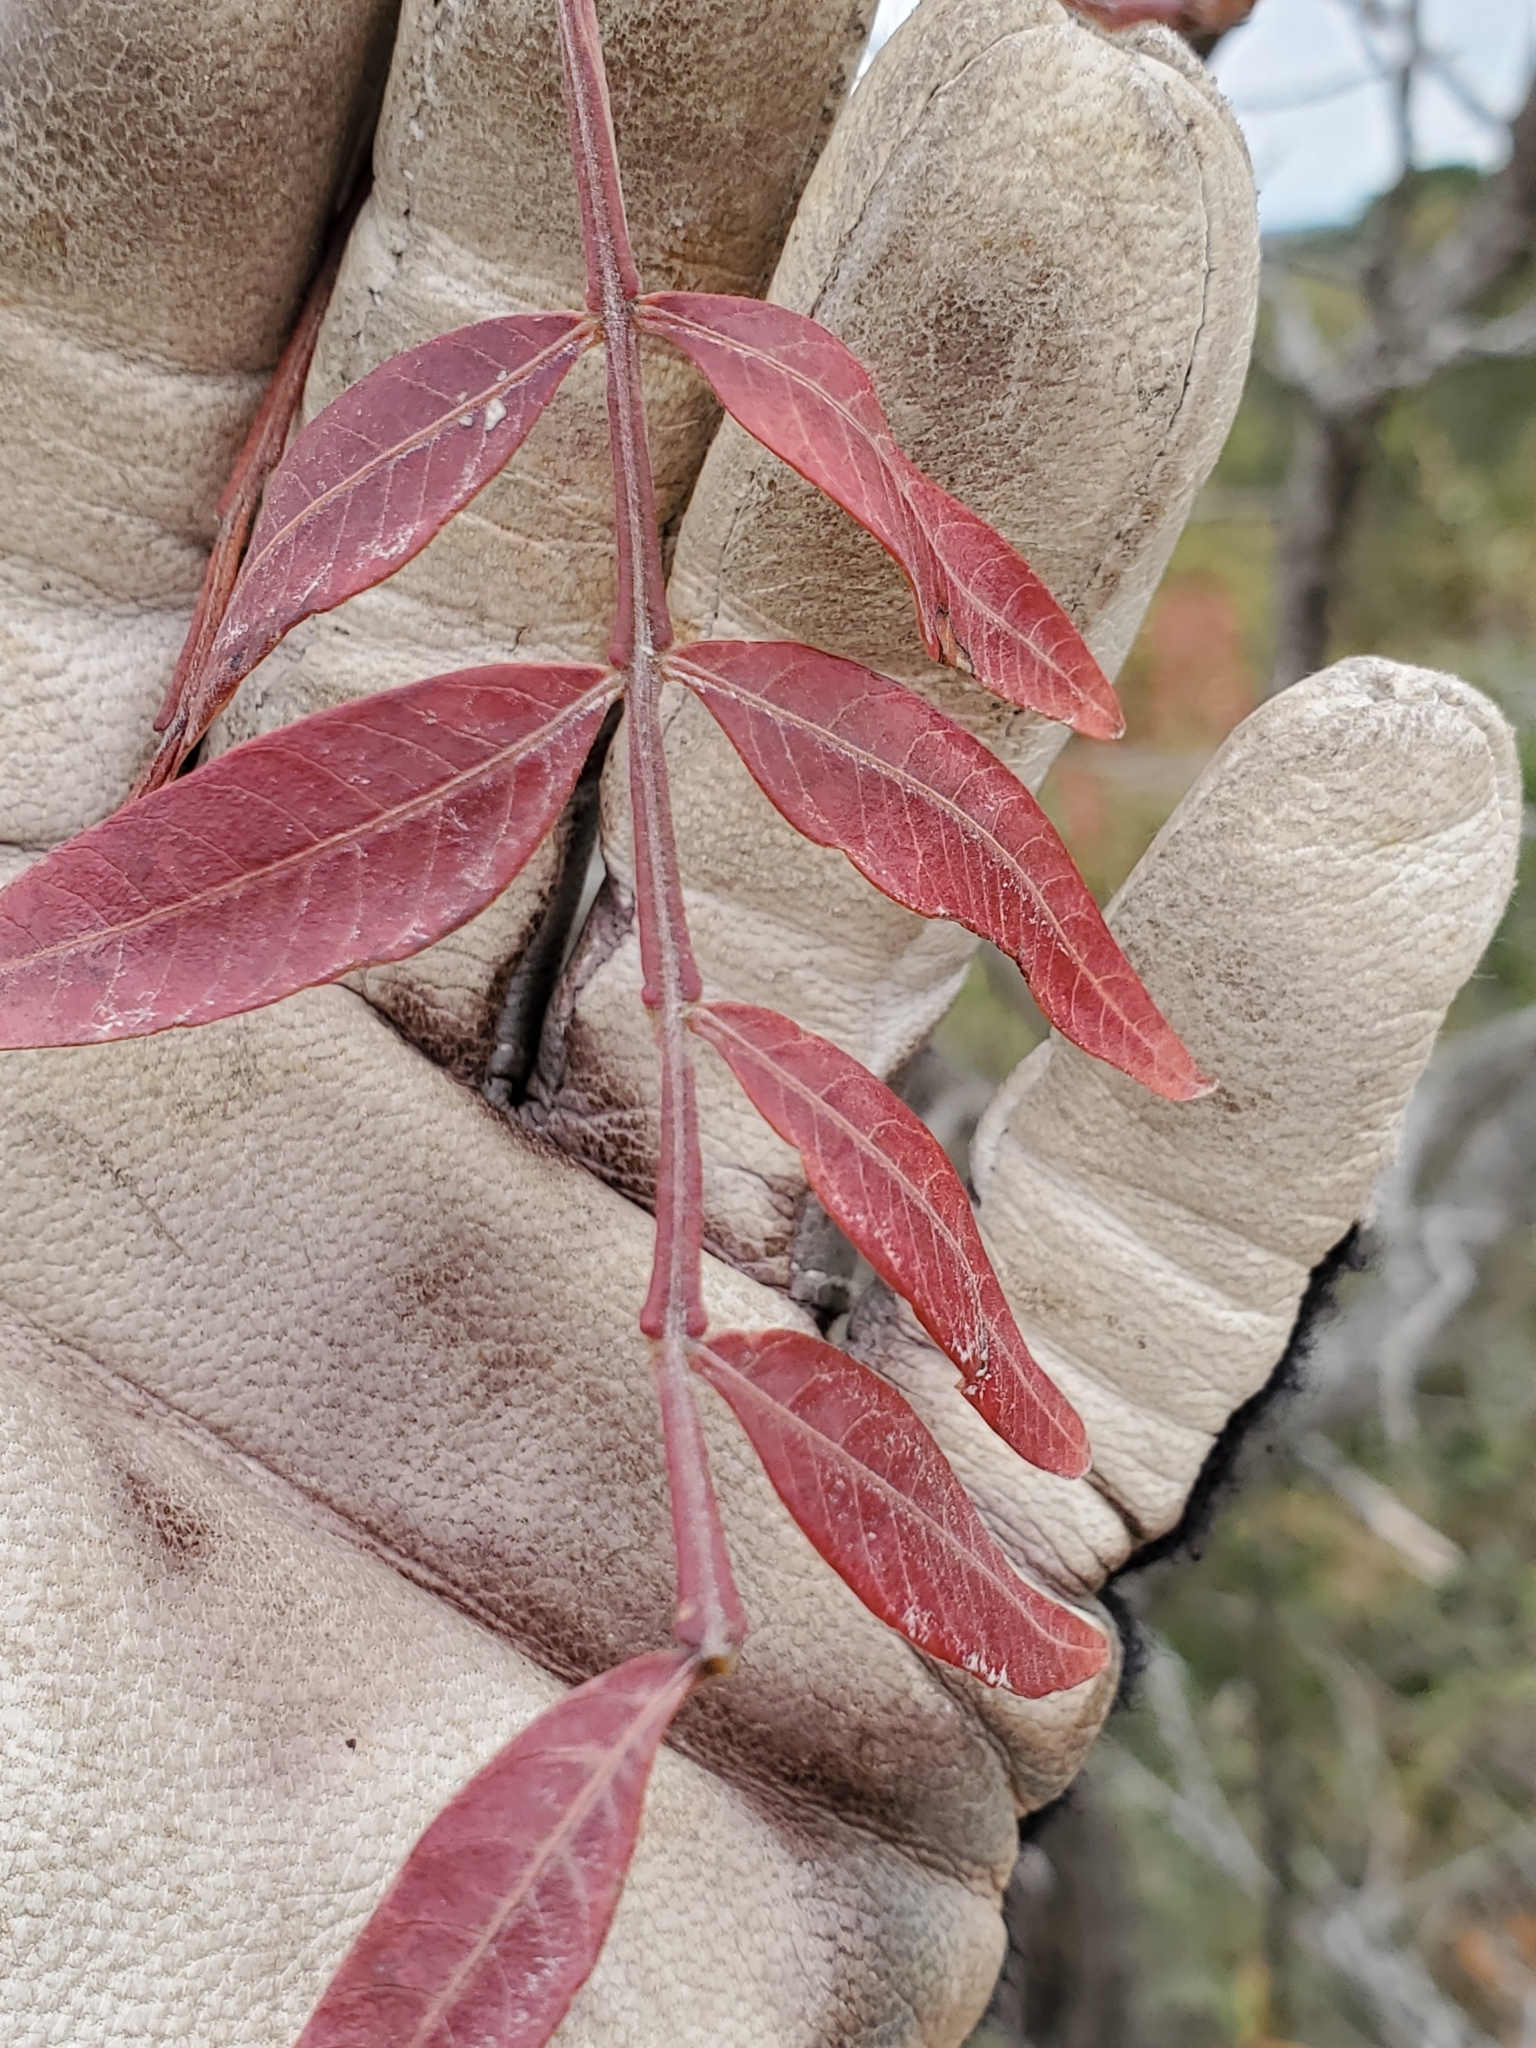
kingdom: Plantae
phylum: Tracheophyta
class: Magnoliopsida
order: Sapindales
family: Anacardiaceae
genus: Rhus
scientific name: Rhus lanceolata
